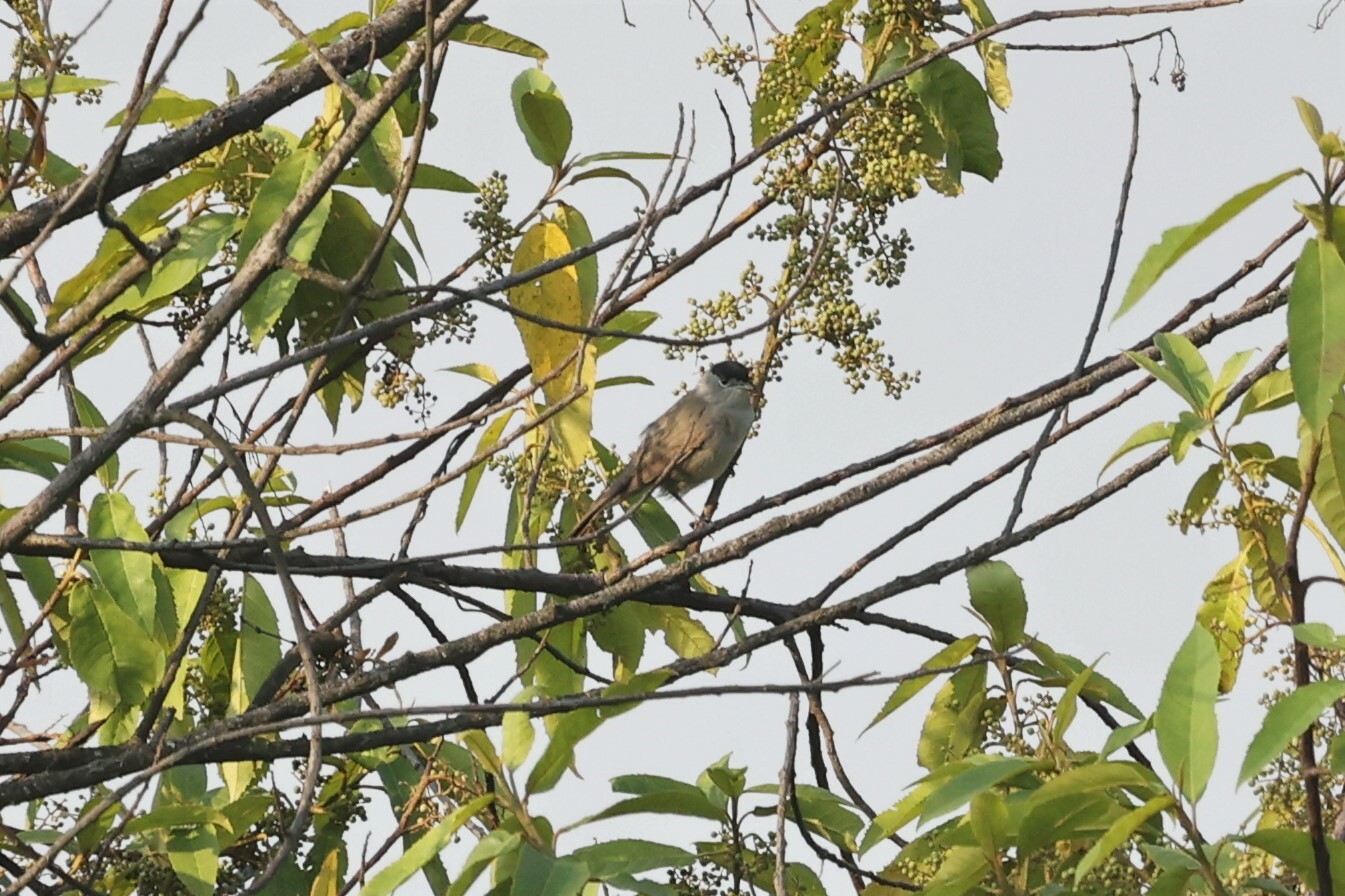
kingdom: Animalia
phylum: Chordata
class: Aves
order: Passeriformes
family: Sylviidae
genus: Sylvia
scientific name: Sylvia atricapilla
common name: Eurasian blackcap
